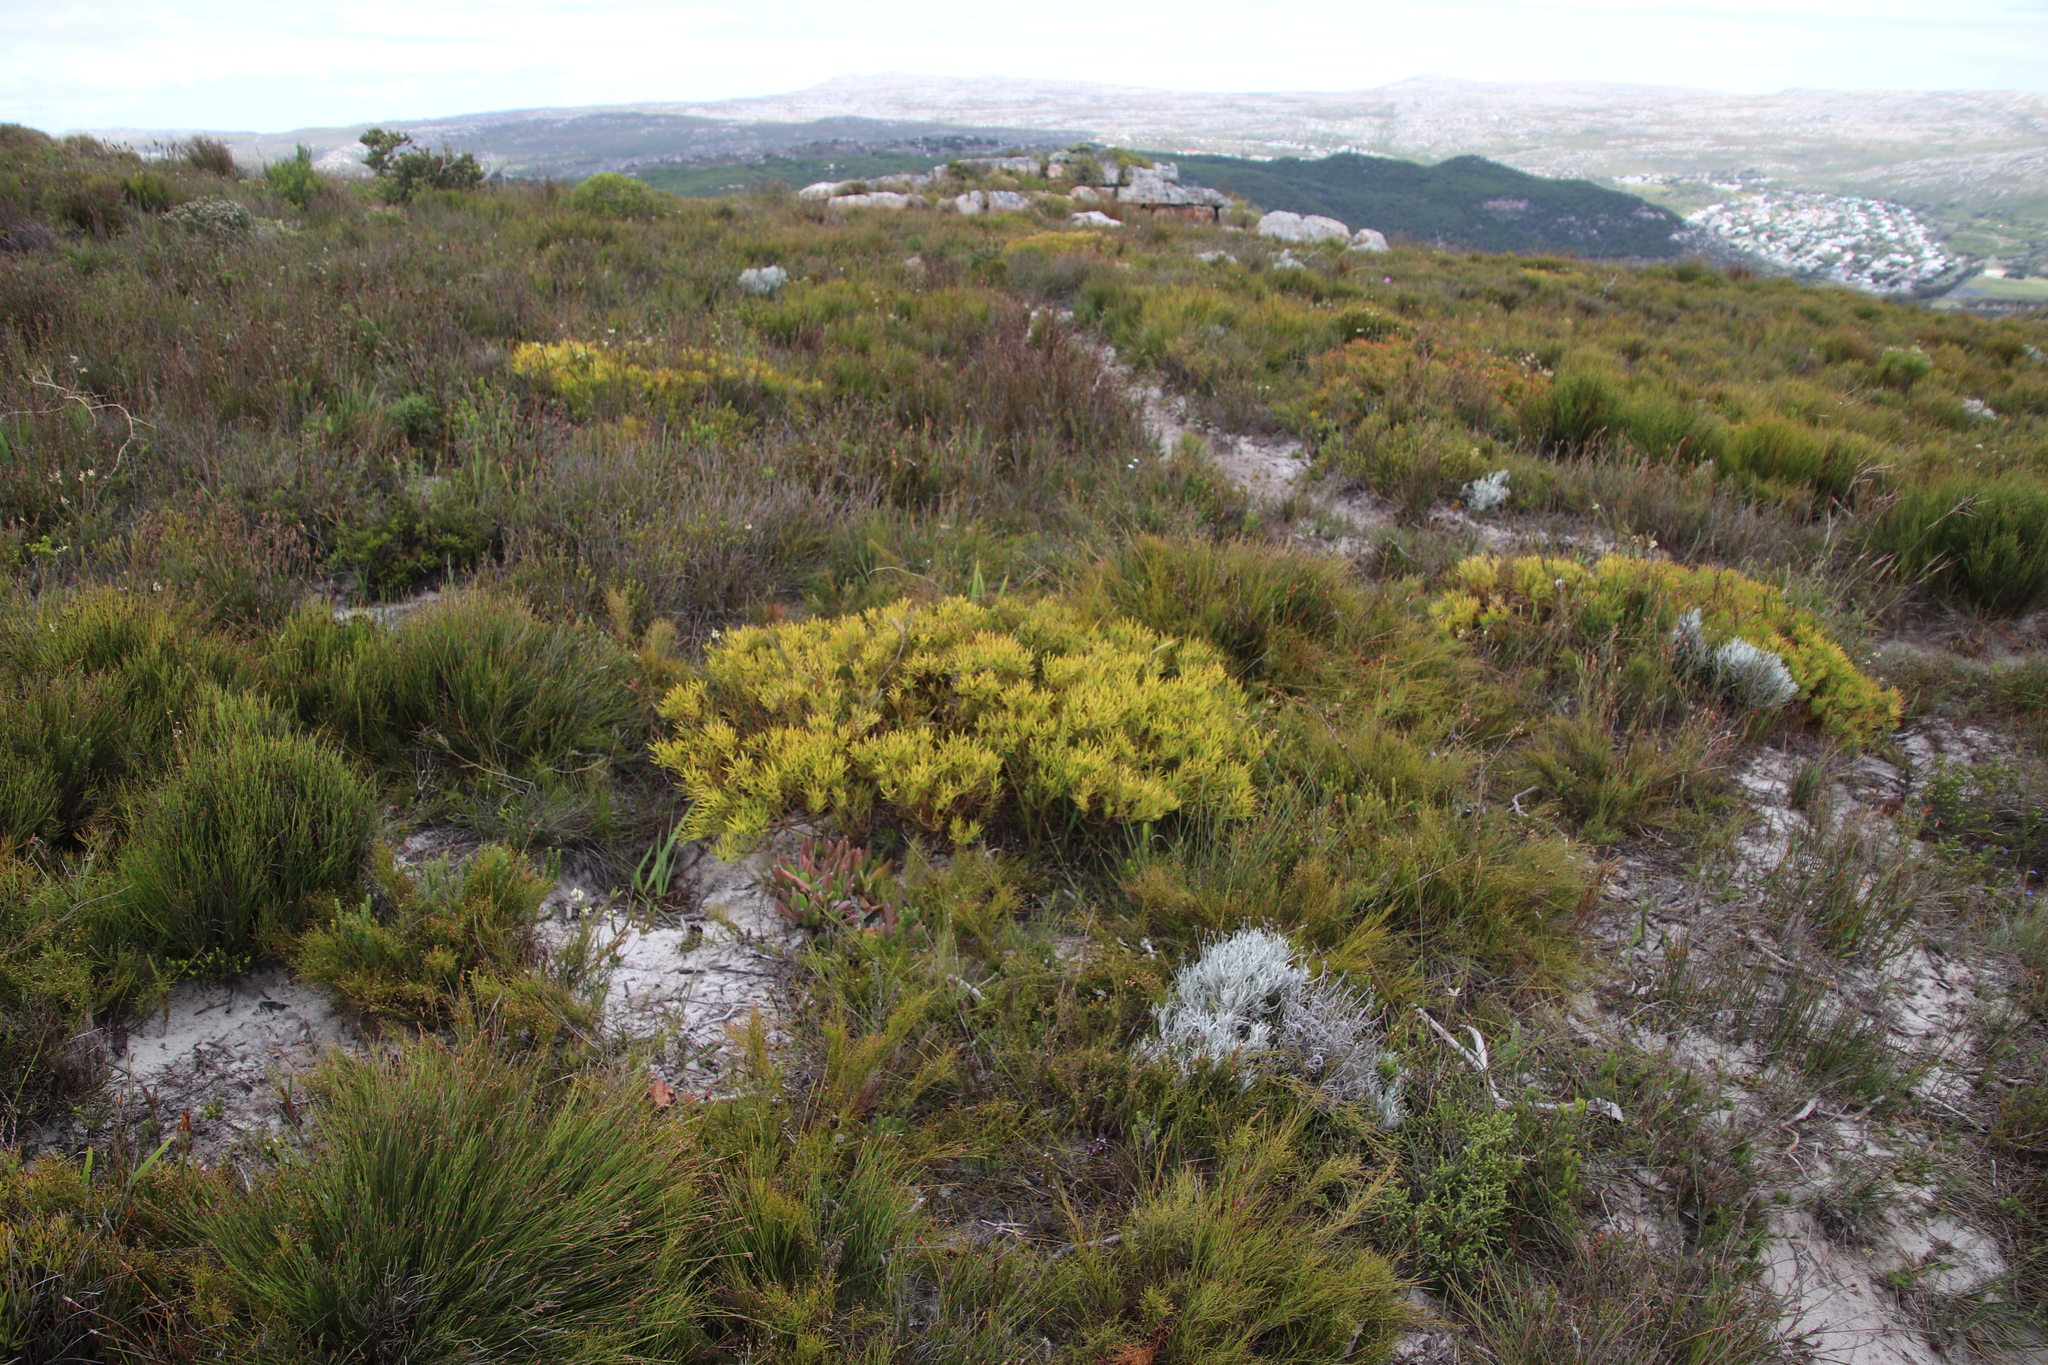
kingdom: Plantae
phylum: Tracheophyta
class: Magnoliopsida
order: Proteales
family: Proteaceae
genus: Leucadendron
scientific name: Leucadendron salignum
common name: Common sunshine conebush
